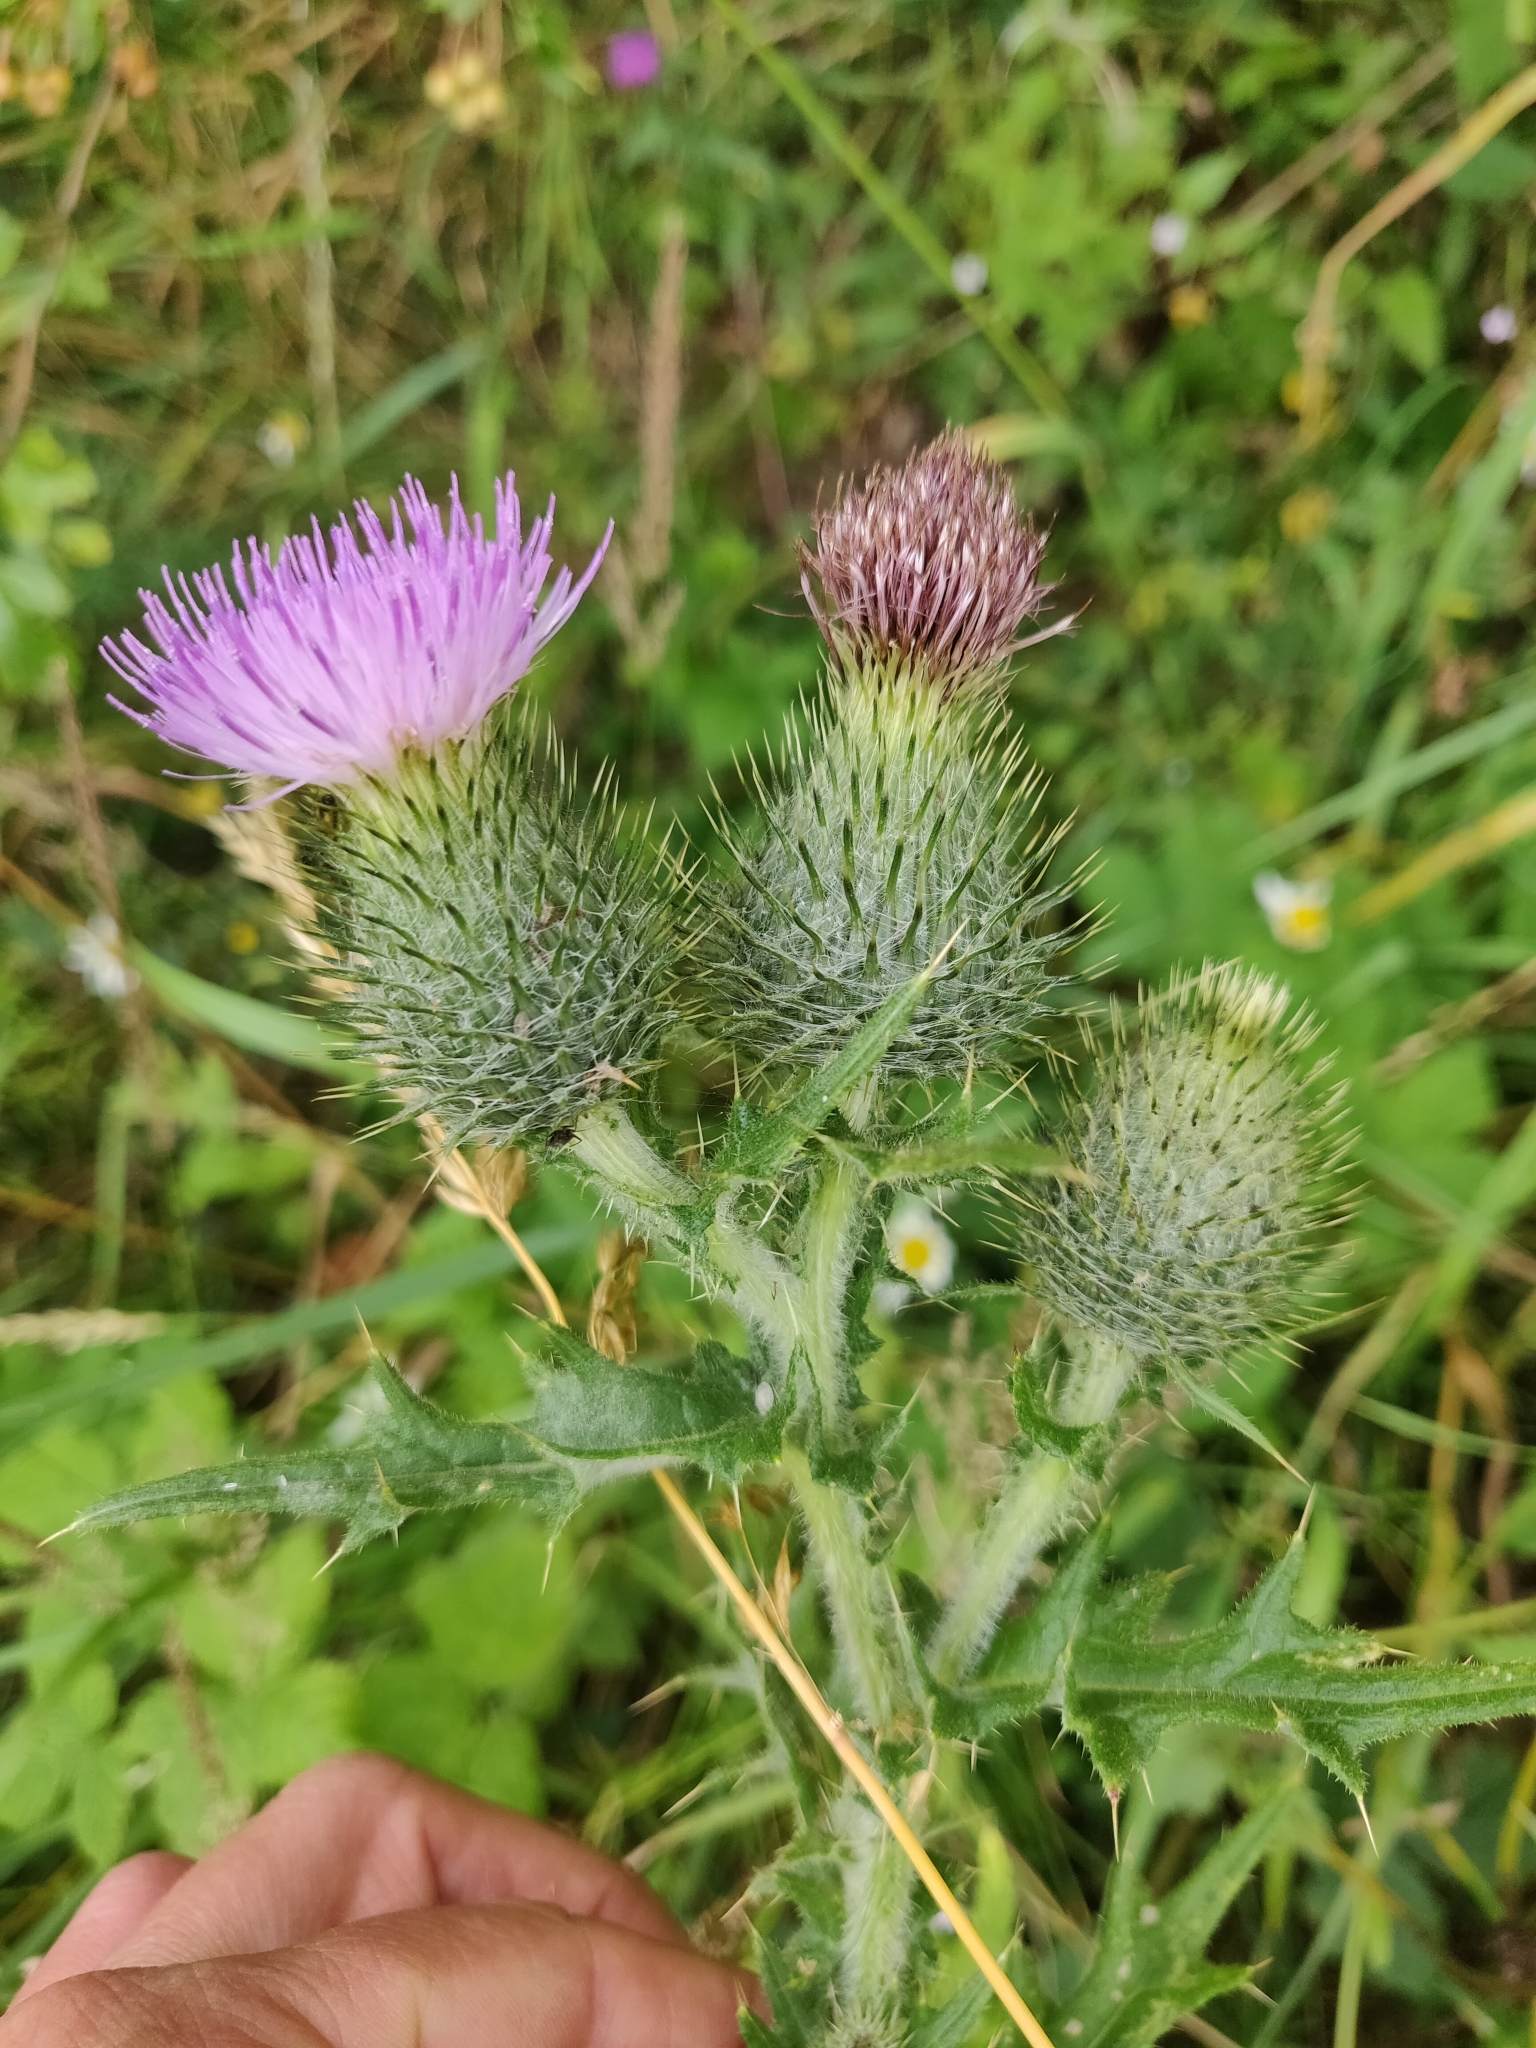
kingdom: Plantae
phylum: Tracheophyta
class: Magnoliopsida
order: Asterales
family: Asteraceae
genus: Cirsium
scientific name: Cirsium vulgare
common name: Bull thistle
